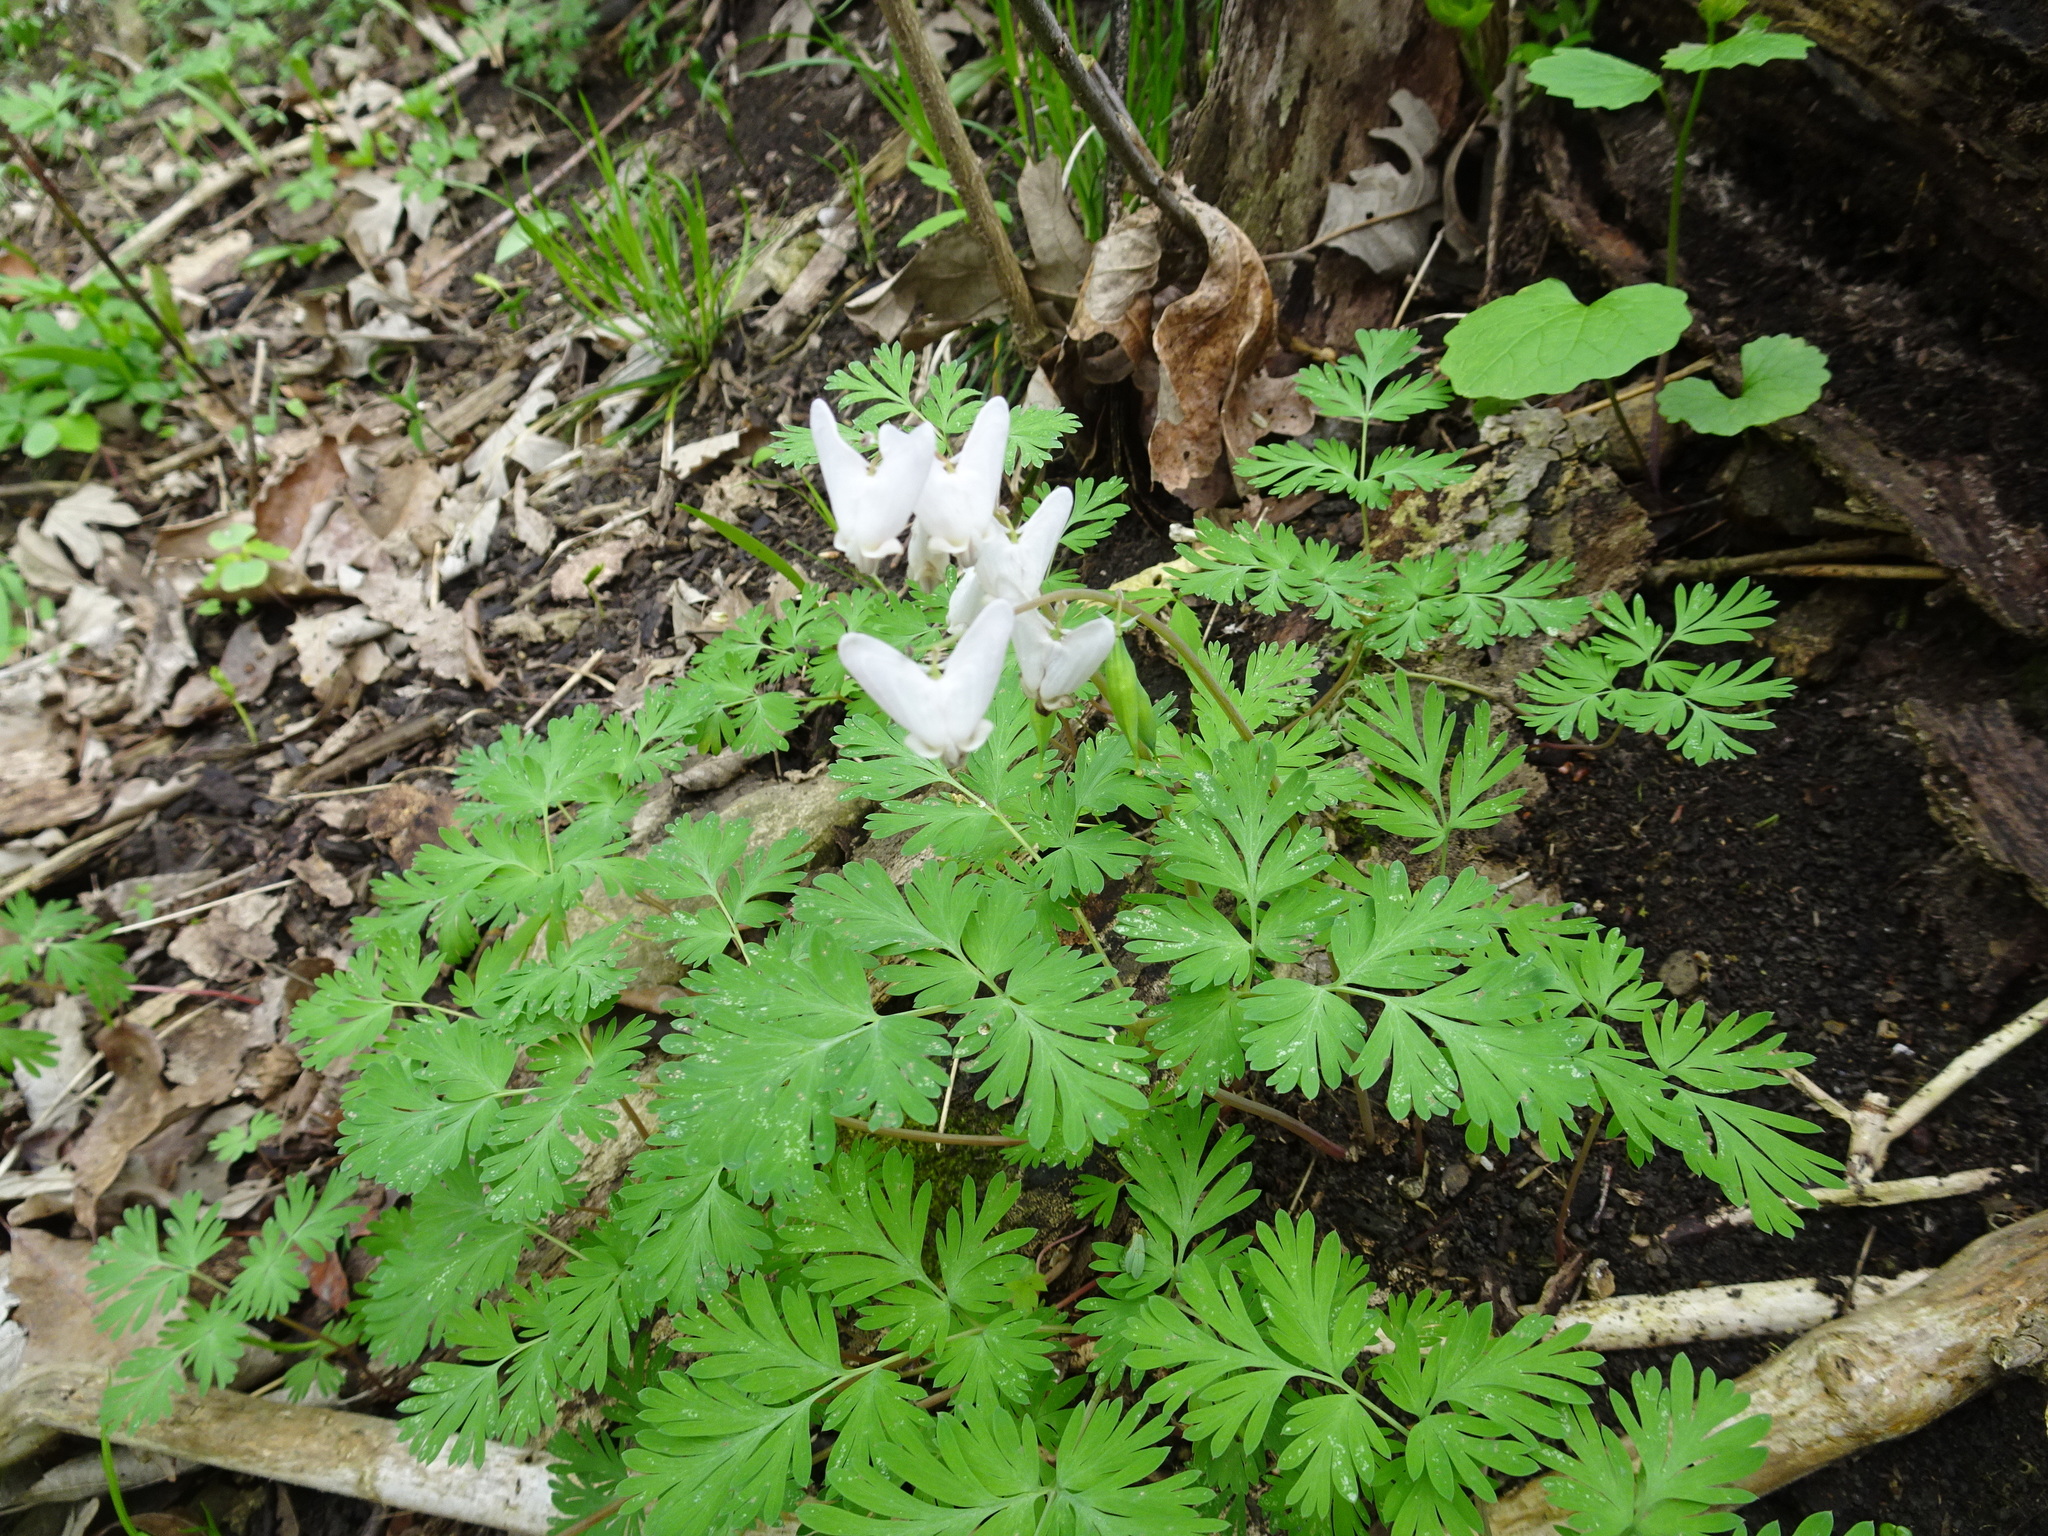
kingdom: Plantae
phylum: Tracheophyta
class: Magnoliopsida
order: Ranunculales
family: Papaveraceae
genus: Dicentra
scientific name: Dicentra cucullaria
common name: Dutchman's breeches
